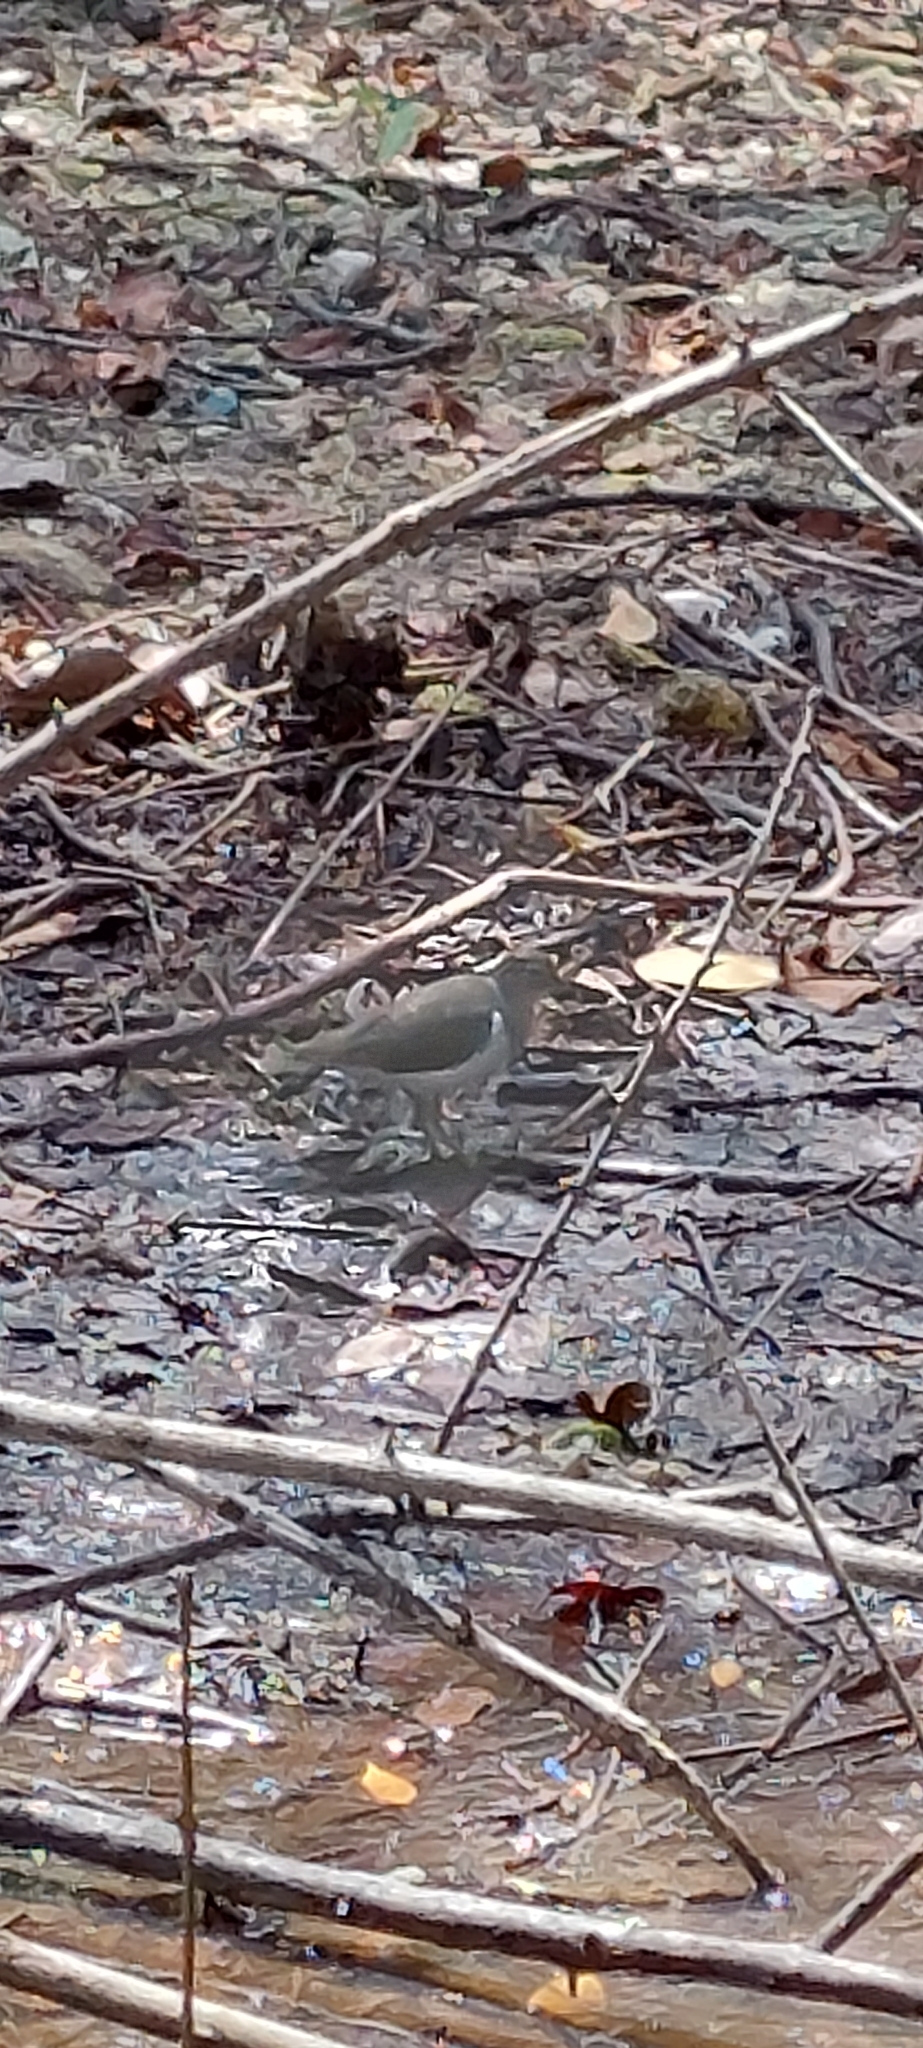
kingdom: Animalia
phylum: Chordata
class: Aves
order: Charadriiformes
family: Scolopacidae
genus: Actitis
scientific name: Actitis macularius
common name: Spotted sandpiper
